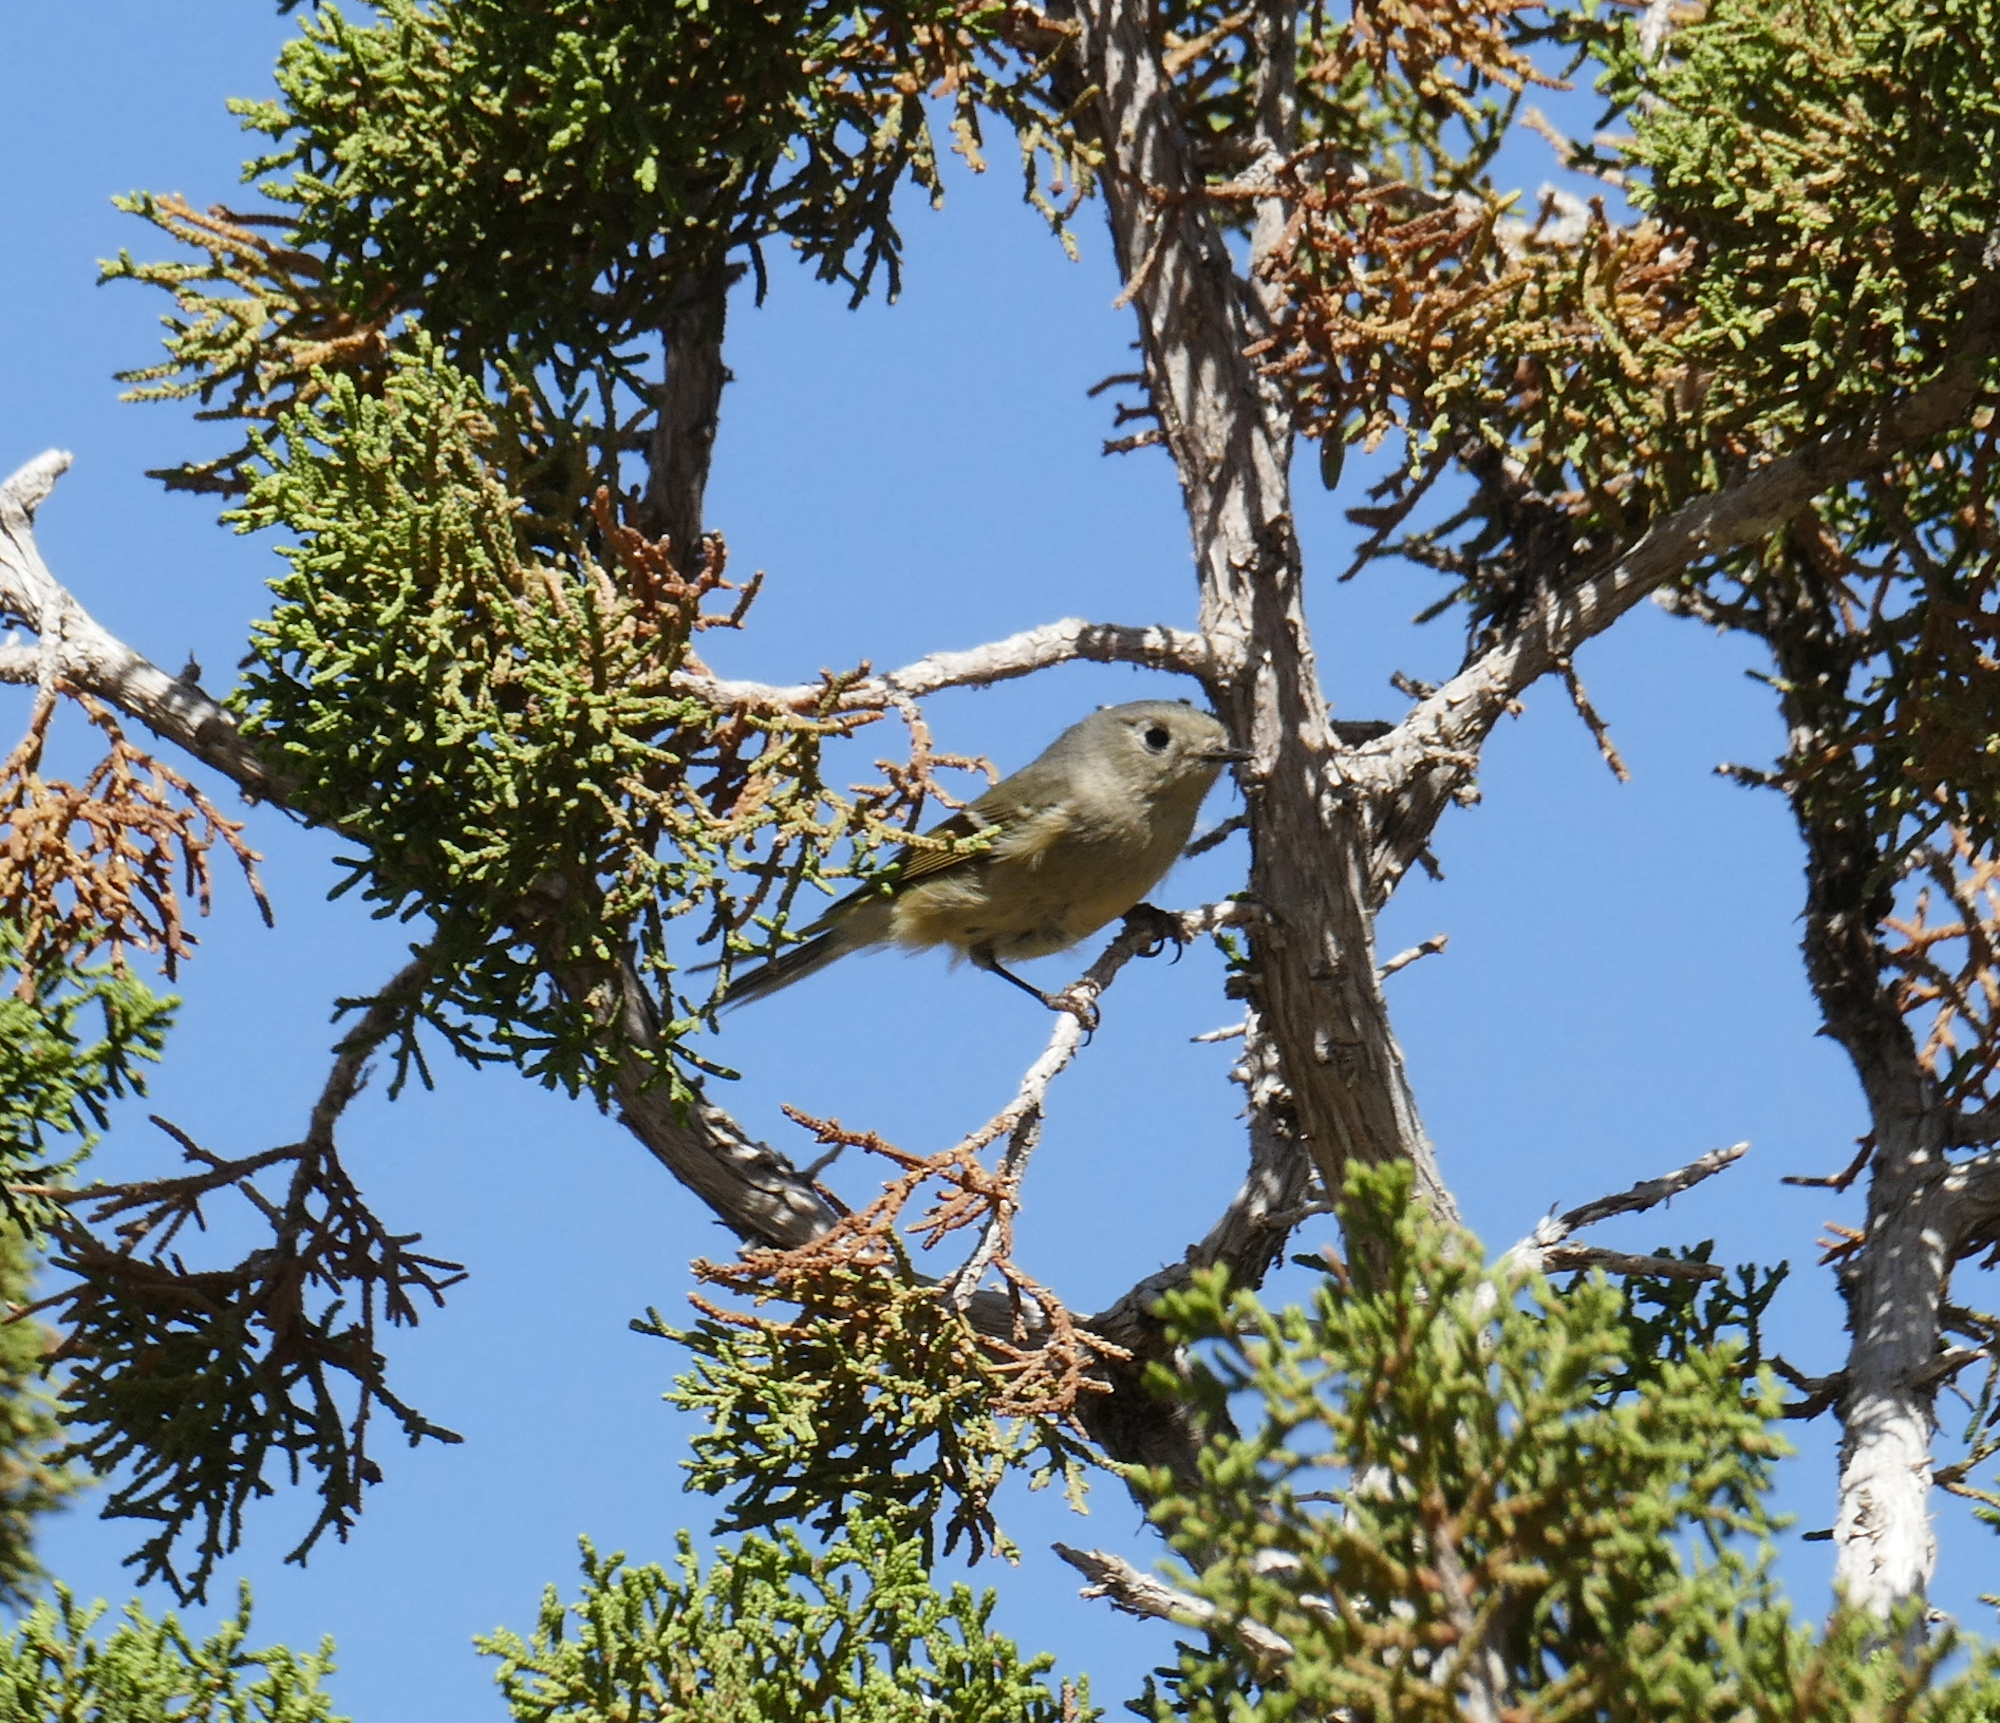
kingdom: Animalia
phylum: Chordata
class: Aves
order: Passeriformes
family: Regulidae
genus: Regulus
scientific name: Regulus calendula
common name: Ruby-crowned kinglet
